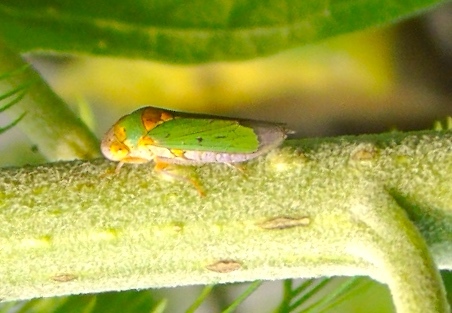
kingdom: Animalia
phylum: Arthropoda
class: Insecta
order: Hemiptera
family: Cicadellidae
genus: Oncometopia
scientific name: Oncometopia
